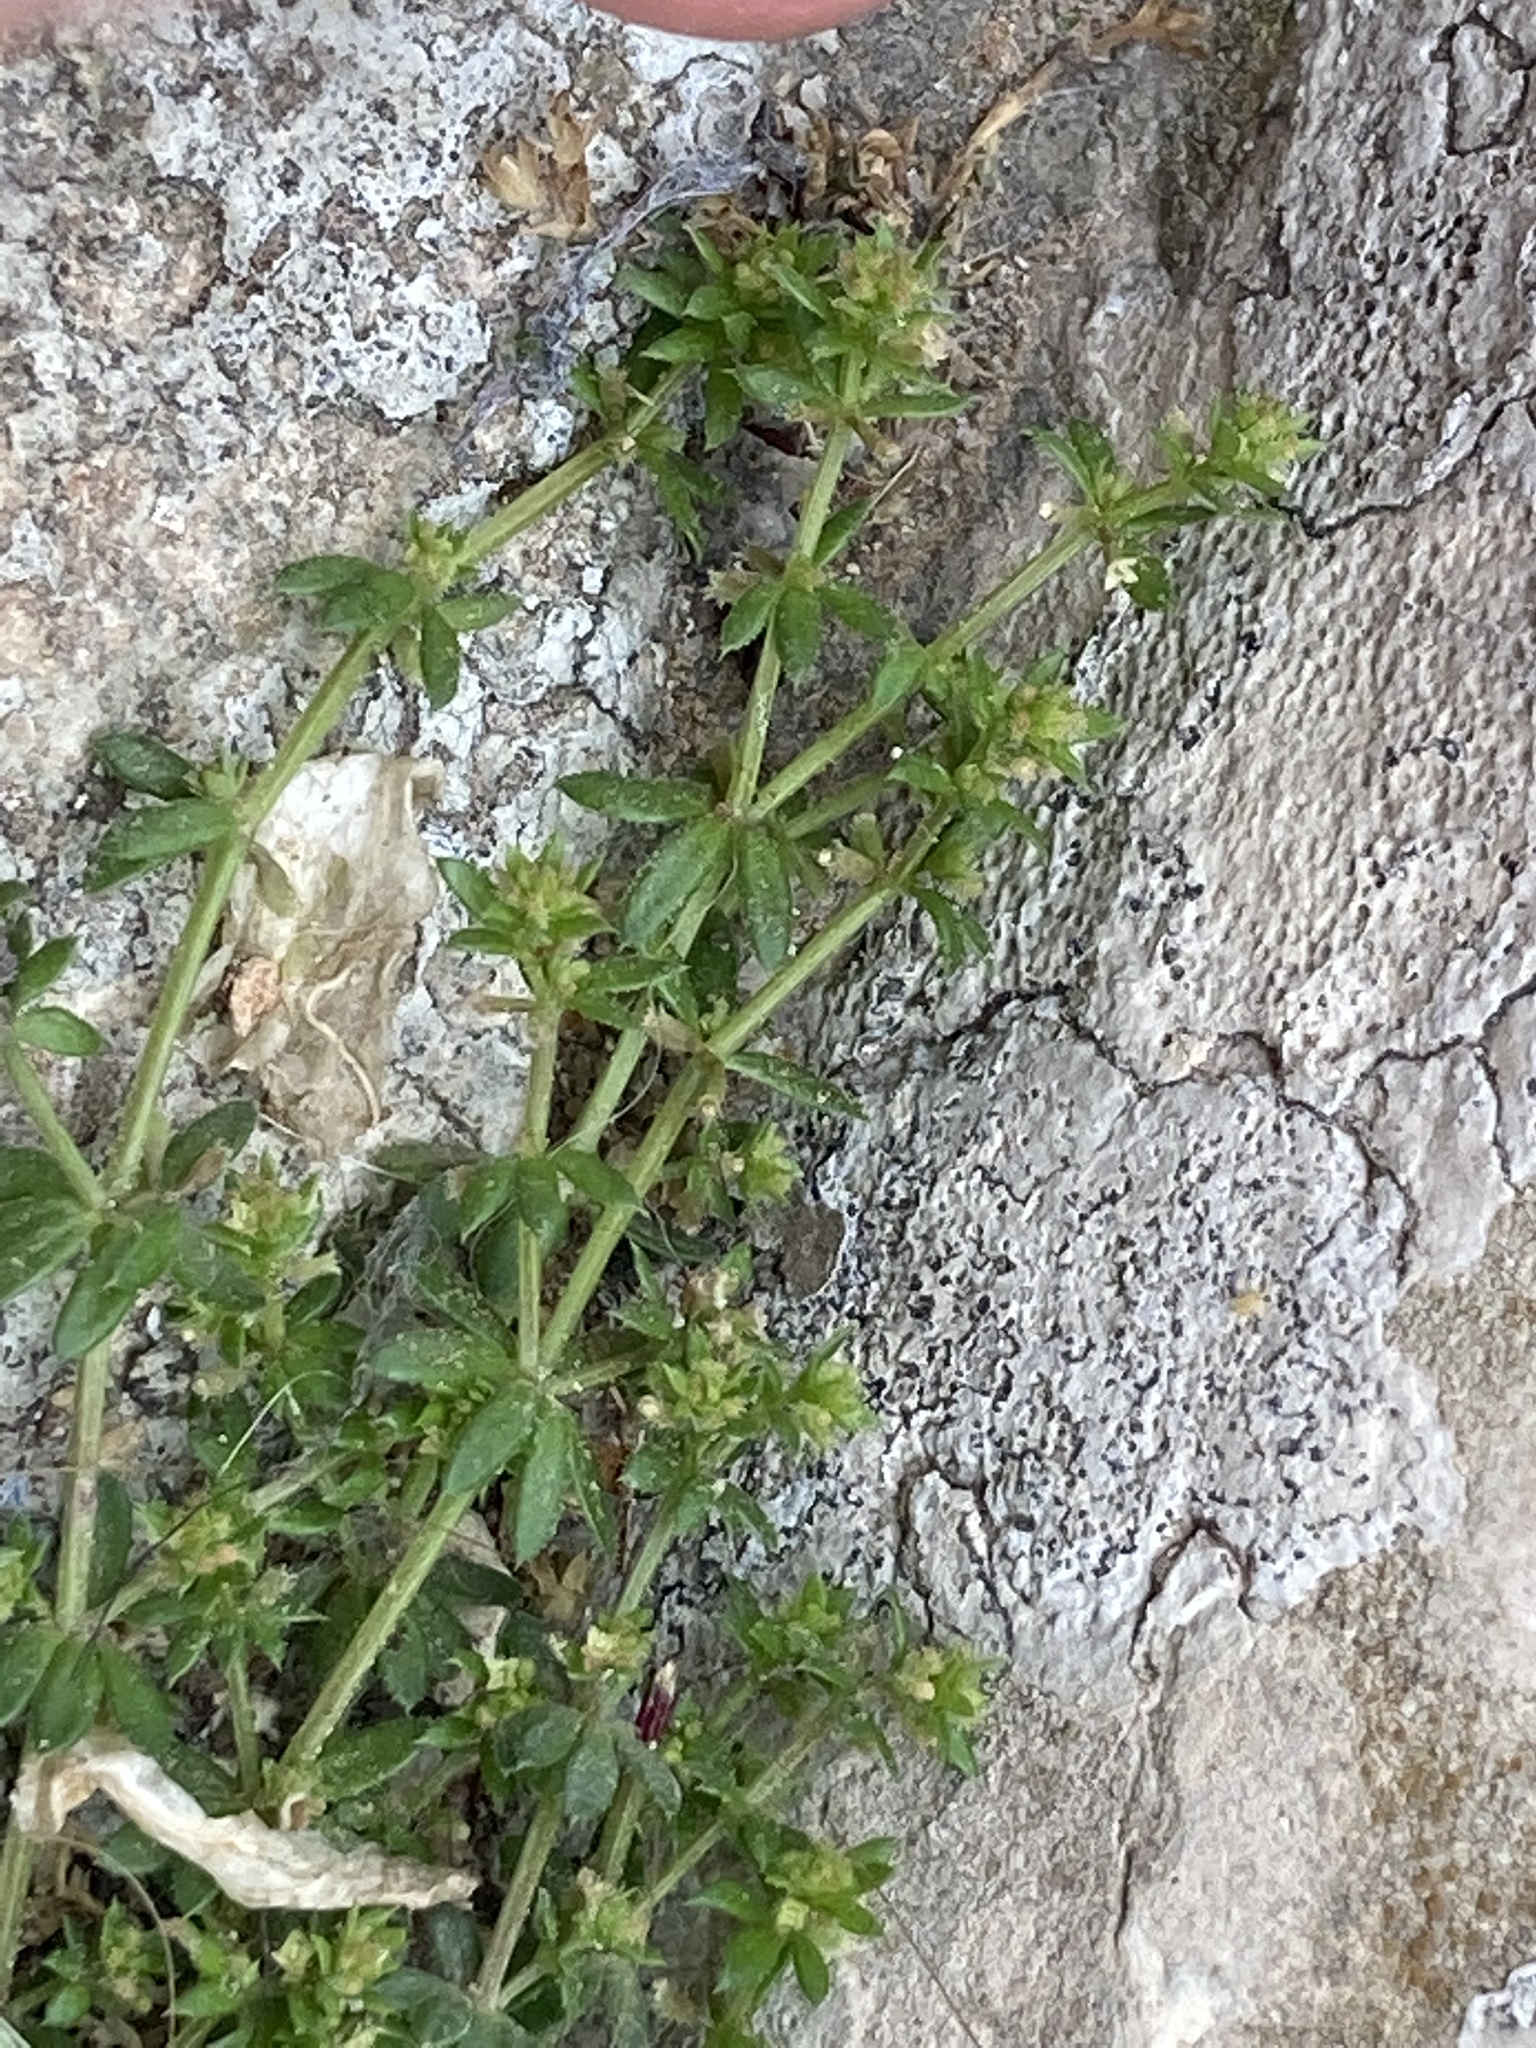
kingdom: Plantae
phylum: Tracheophyta
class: Magnoliopsida
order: Gentianales
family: Rubiaceae
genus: Galium
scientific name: Galium murale
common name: Yellow wall bedstraw
